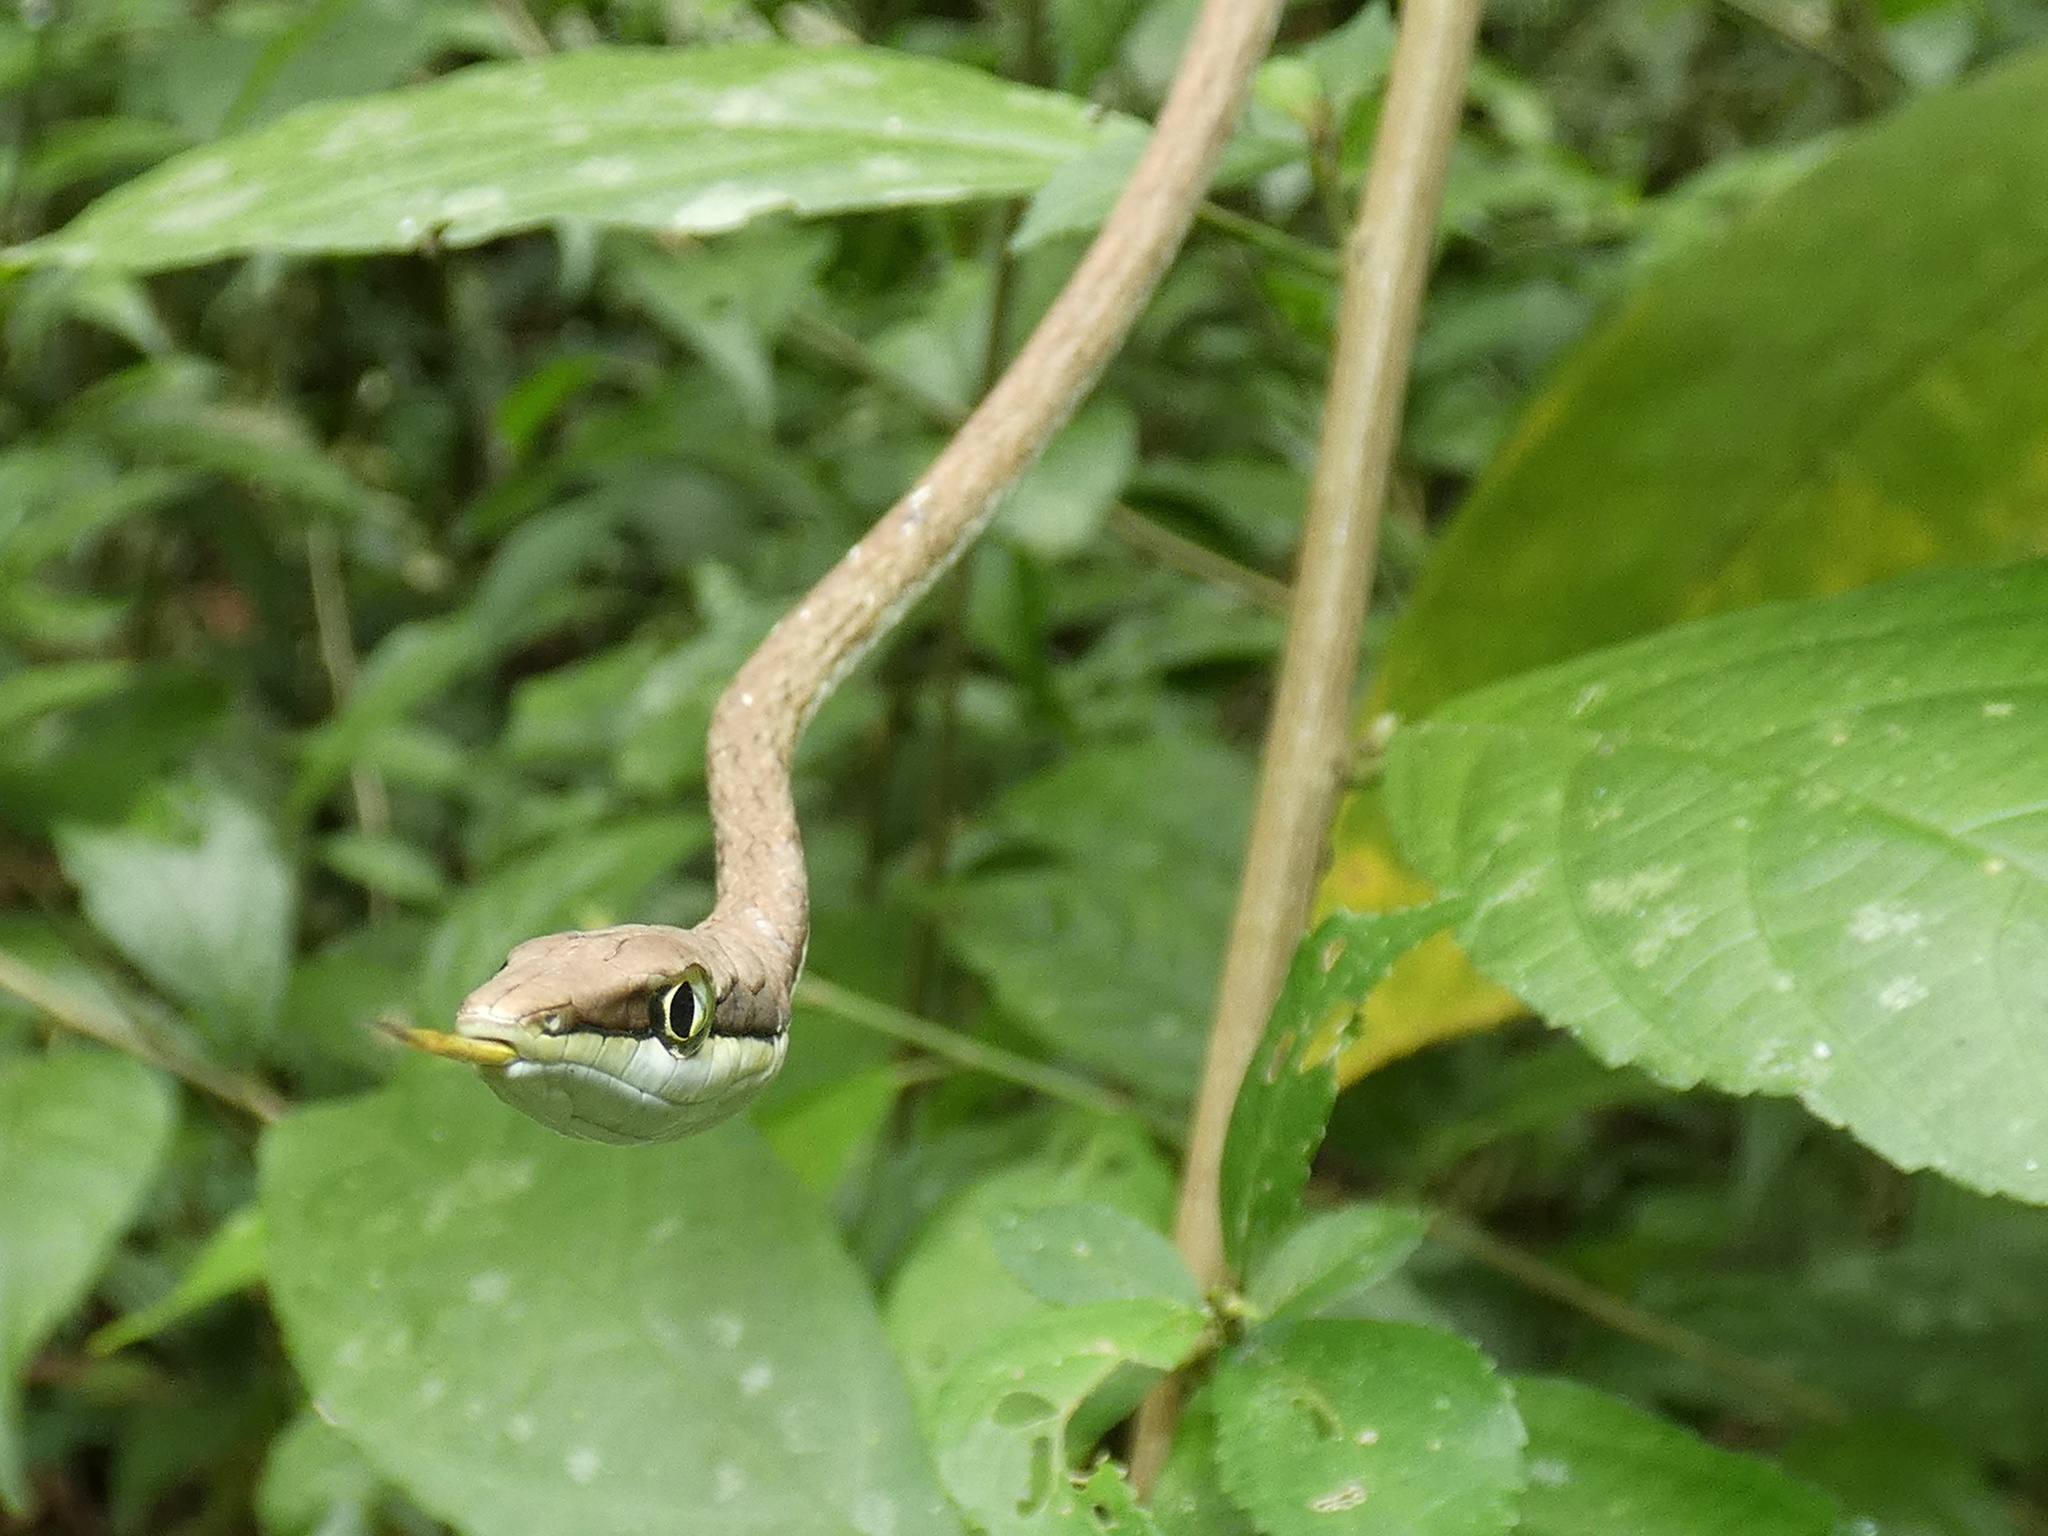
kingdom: Animalia
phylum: Chordata
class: Squamata
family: Colubridae
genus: Oxybelis
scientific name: Oxybelis vittatus
